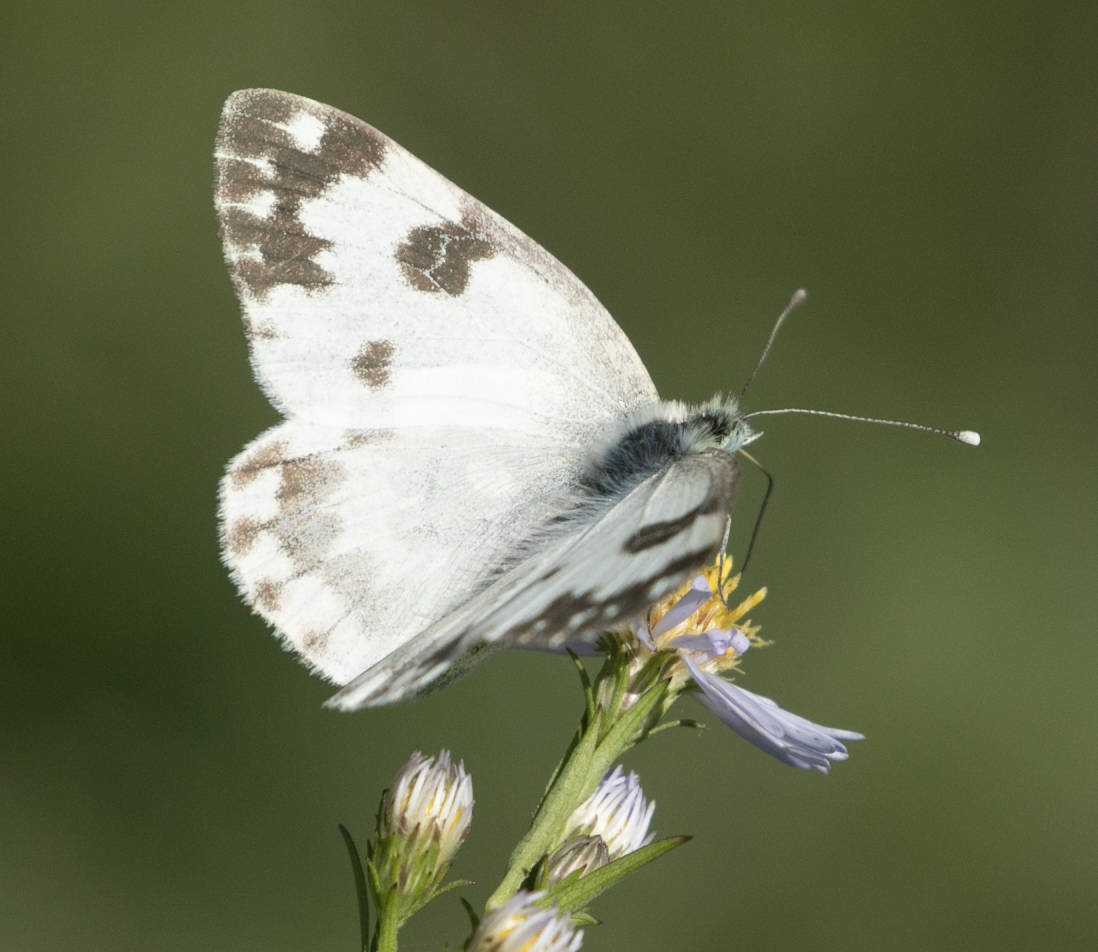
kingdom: Animalia
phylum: Arthropoda
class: Insecta
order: Lepidoptera
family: Pieridae
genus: Pontia
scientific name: Pontia edusa
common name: Eastern bath white
